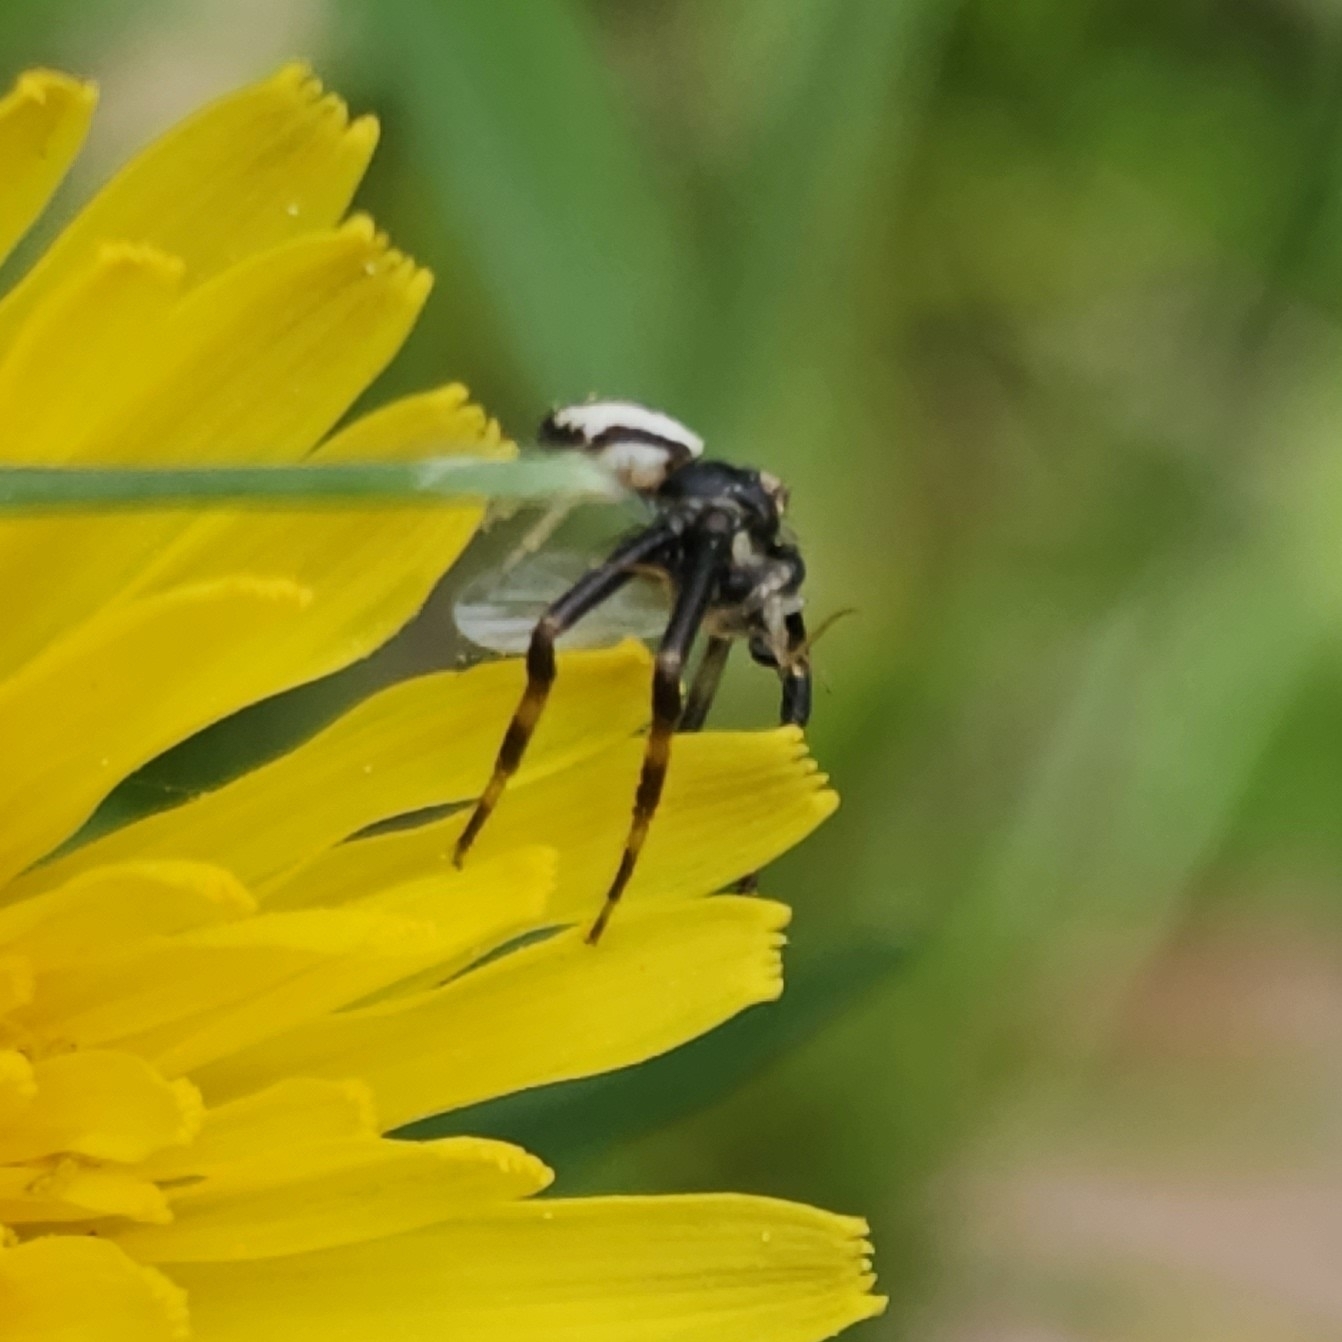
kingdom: Animalia
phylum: Arthropoda
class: Arachnida
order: Araneae
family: Thomisidae
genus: Misumena
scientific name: Misumena vatia
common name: Goldenrod crab spider
